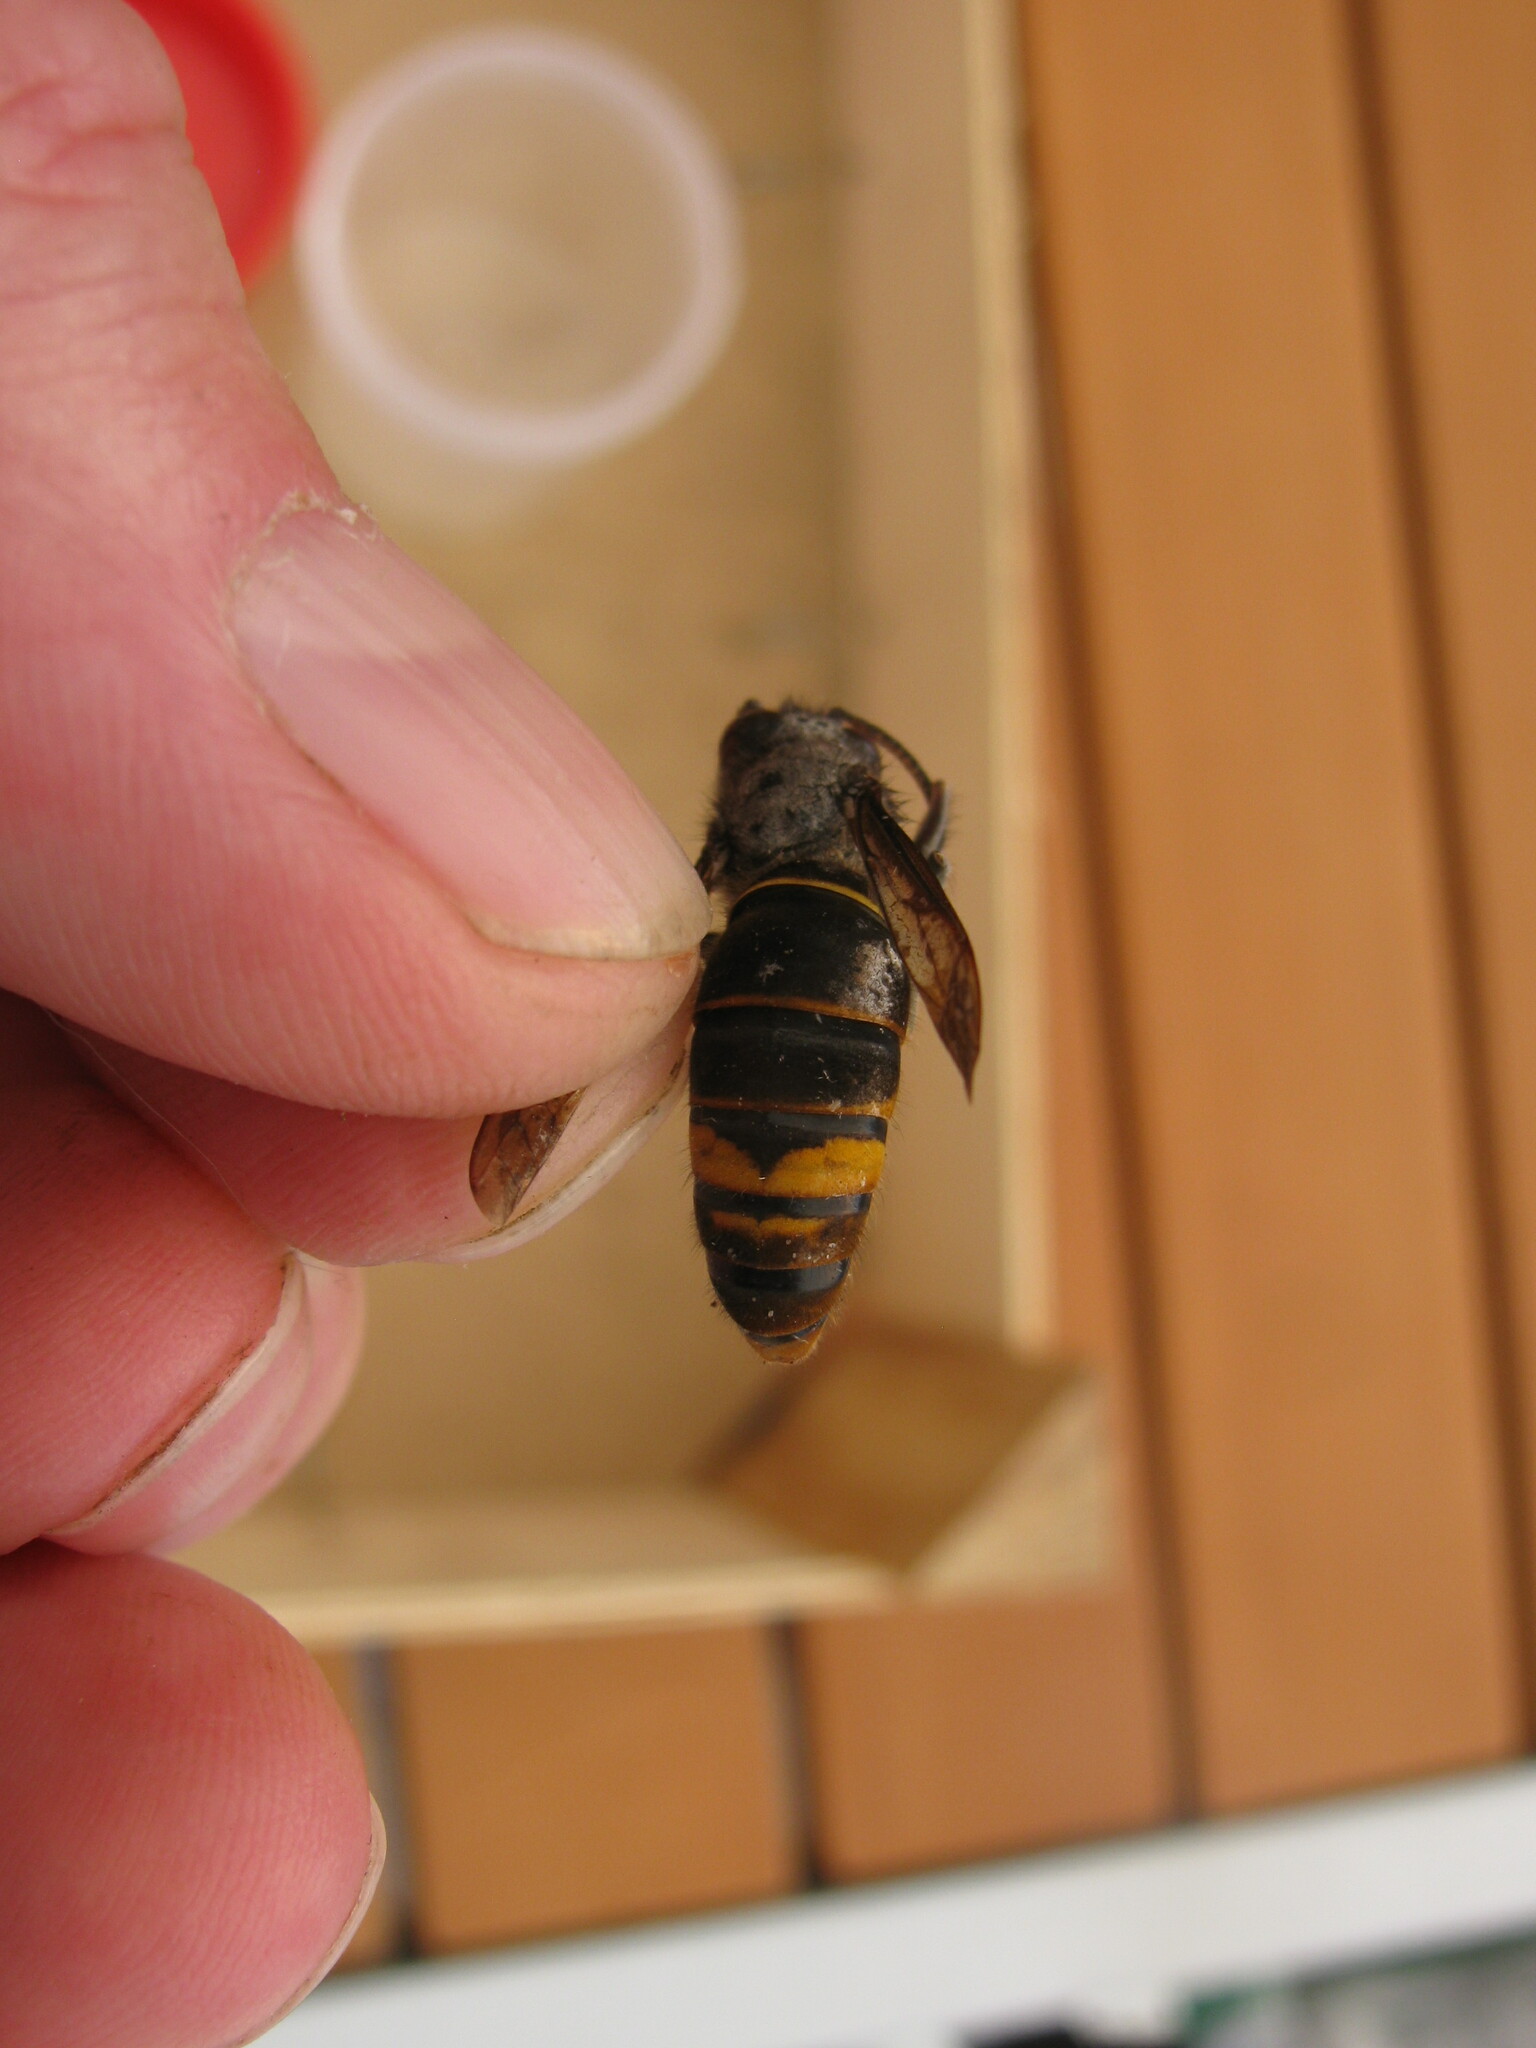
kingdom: Animalia
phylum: Arthropoda
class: Insecta
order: Hymenoptera
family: Vespidae
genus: Vespa
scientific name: Vespa velutina
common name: Asian hornet
